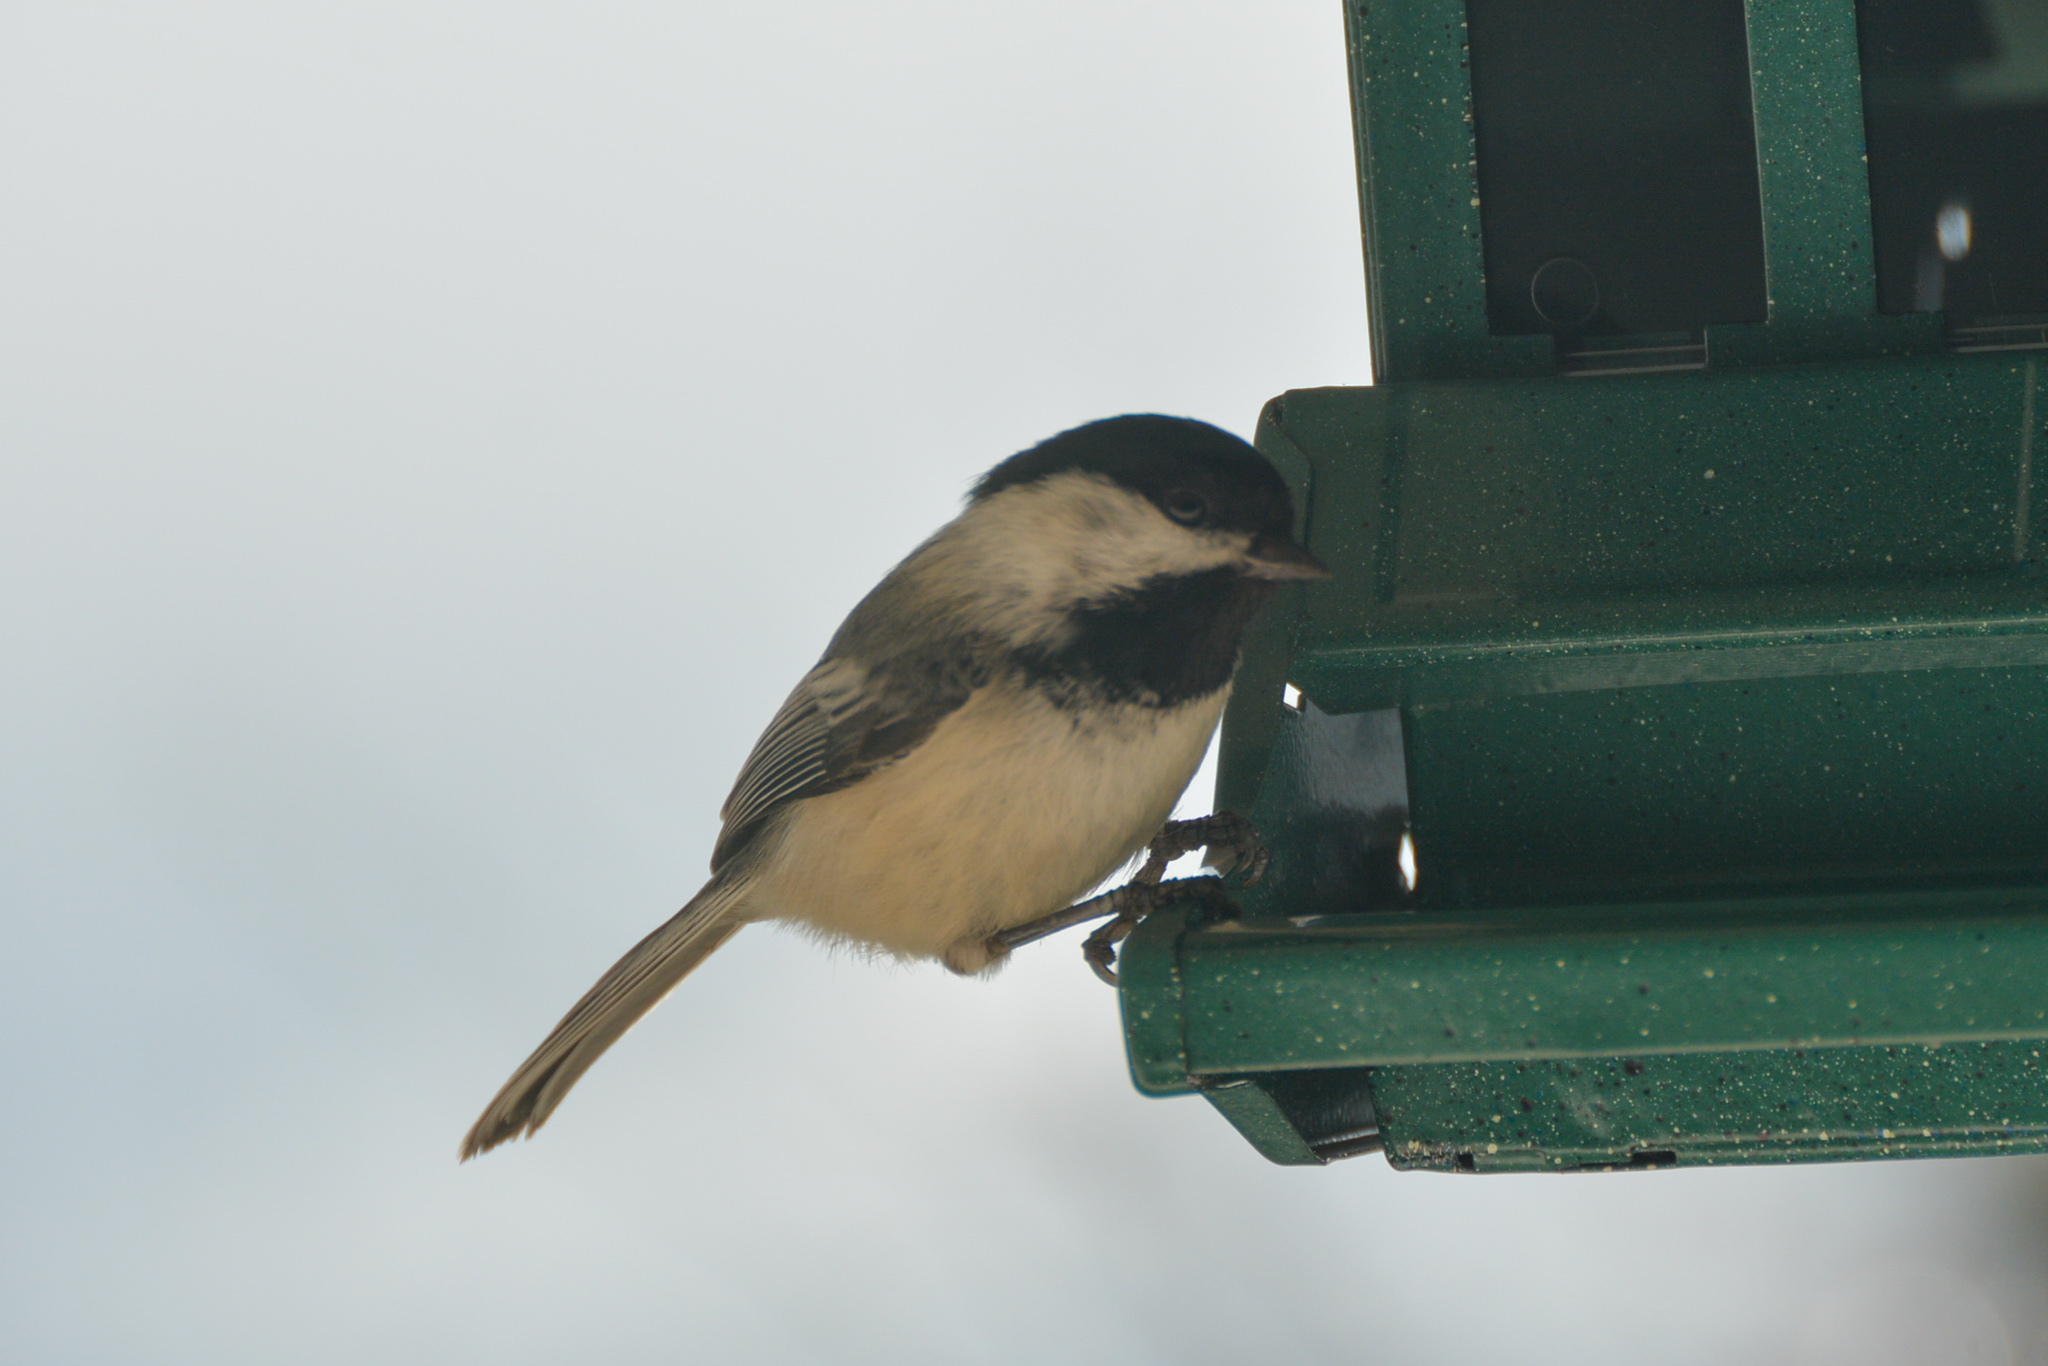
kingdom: Animalia
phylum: Chordata
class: Aves
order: Passeriformes
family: Paridae
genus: Poecile
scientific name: Poecile atricapillus
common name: Black-capped chickadee
